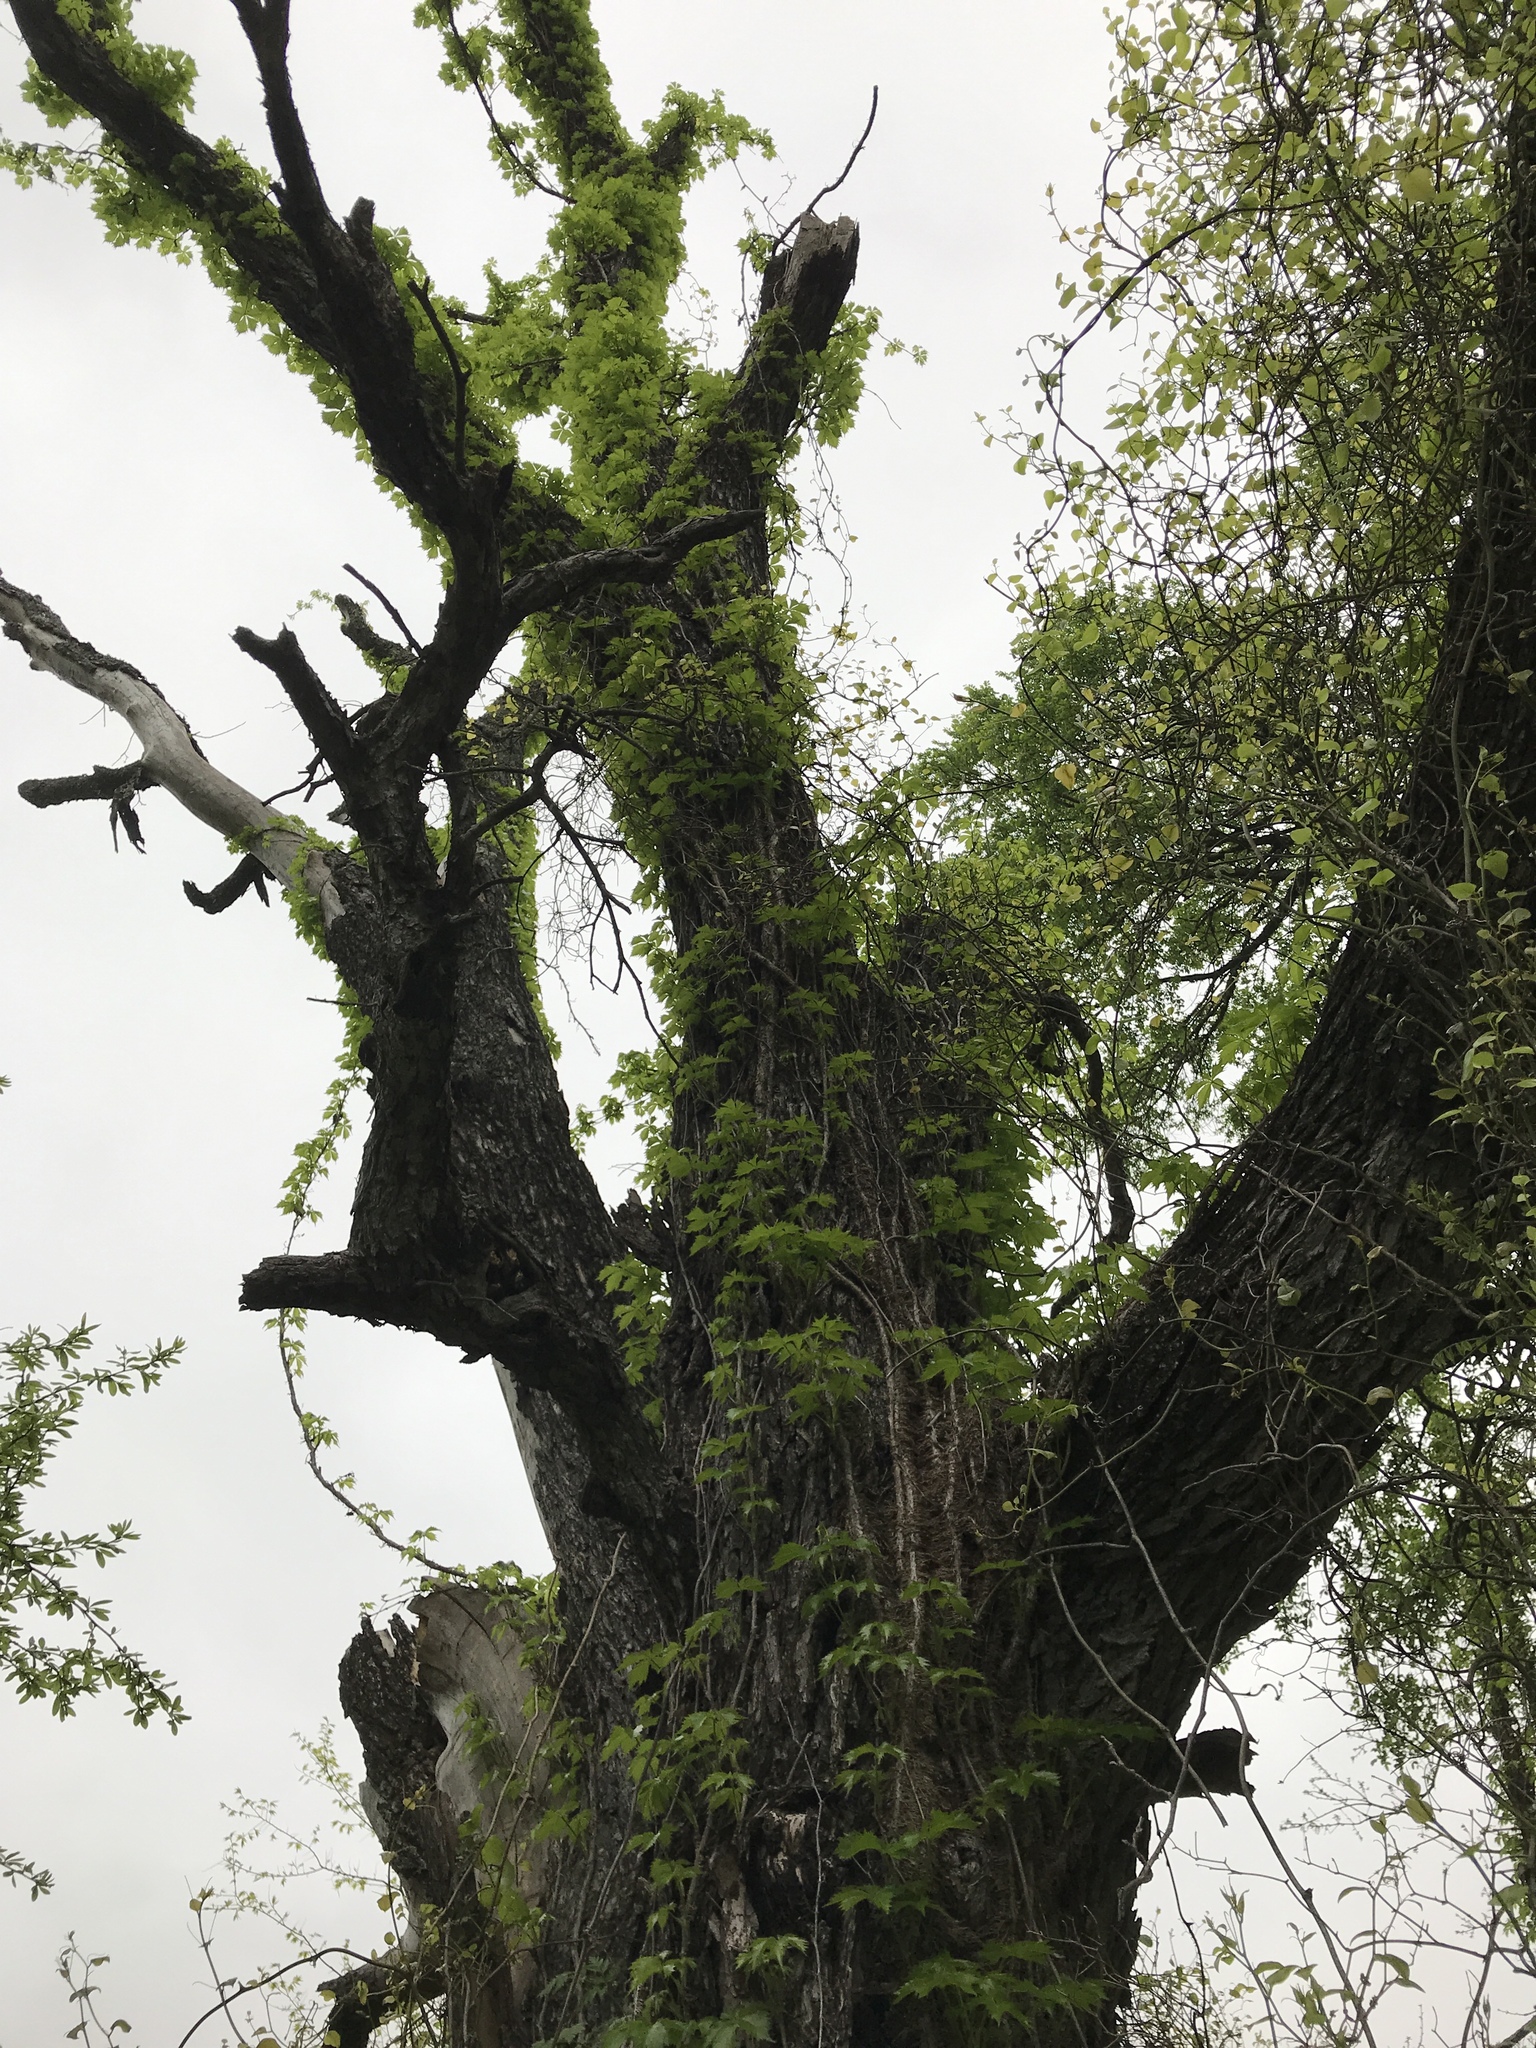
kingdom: Plantae
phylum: Tracheophyta
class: Magnoliopsida
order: Vitales
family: Vitaceae
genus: Parthenocissus
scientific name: Parthenocissus quinquefolia
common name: Virginia-creeper
